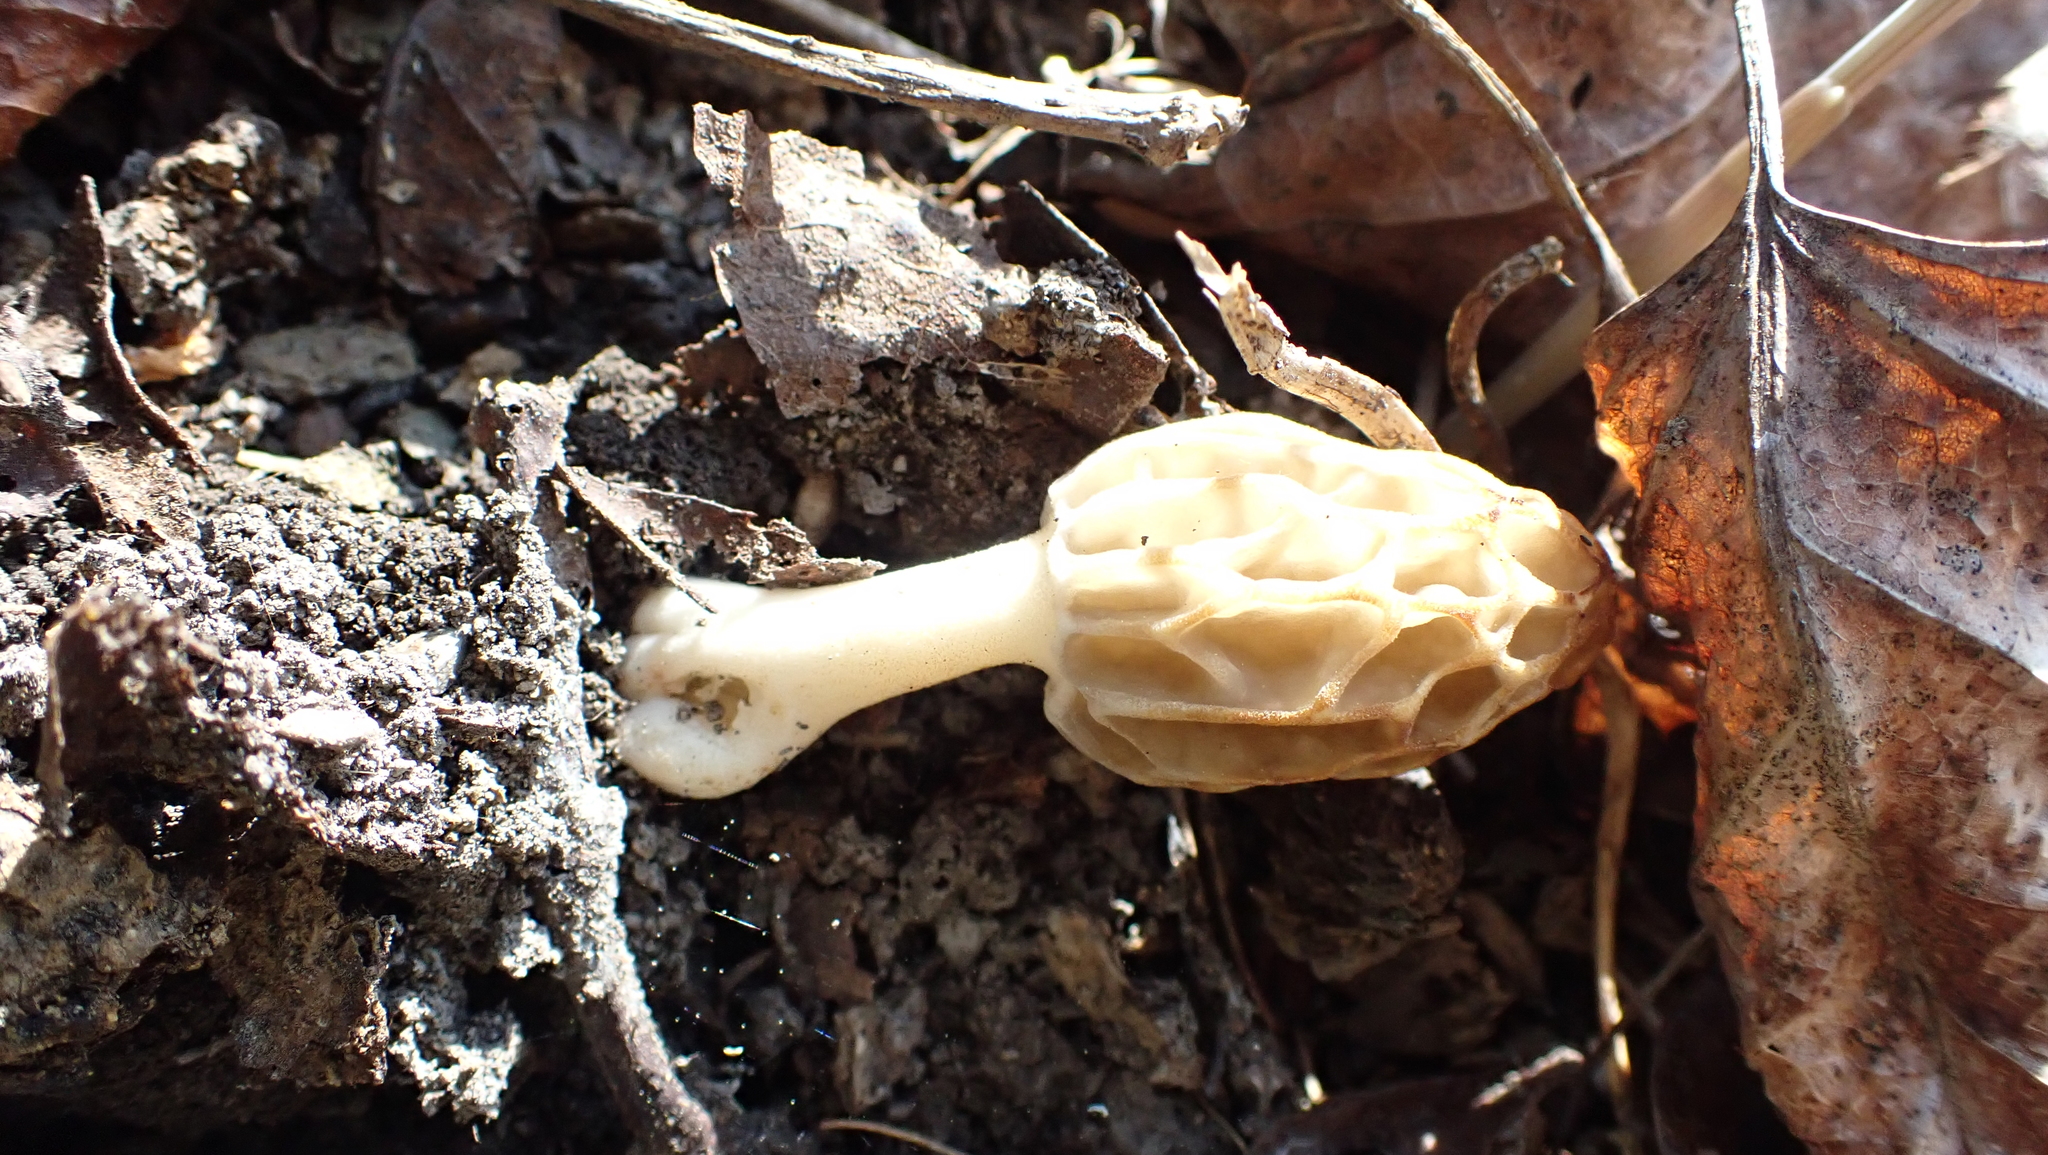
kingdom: Fungi
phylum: Ascomycota
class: Pezizomycetes
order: Pezizales
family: Morchellaceae
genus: Morchella
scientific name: Morchella diminutiva
